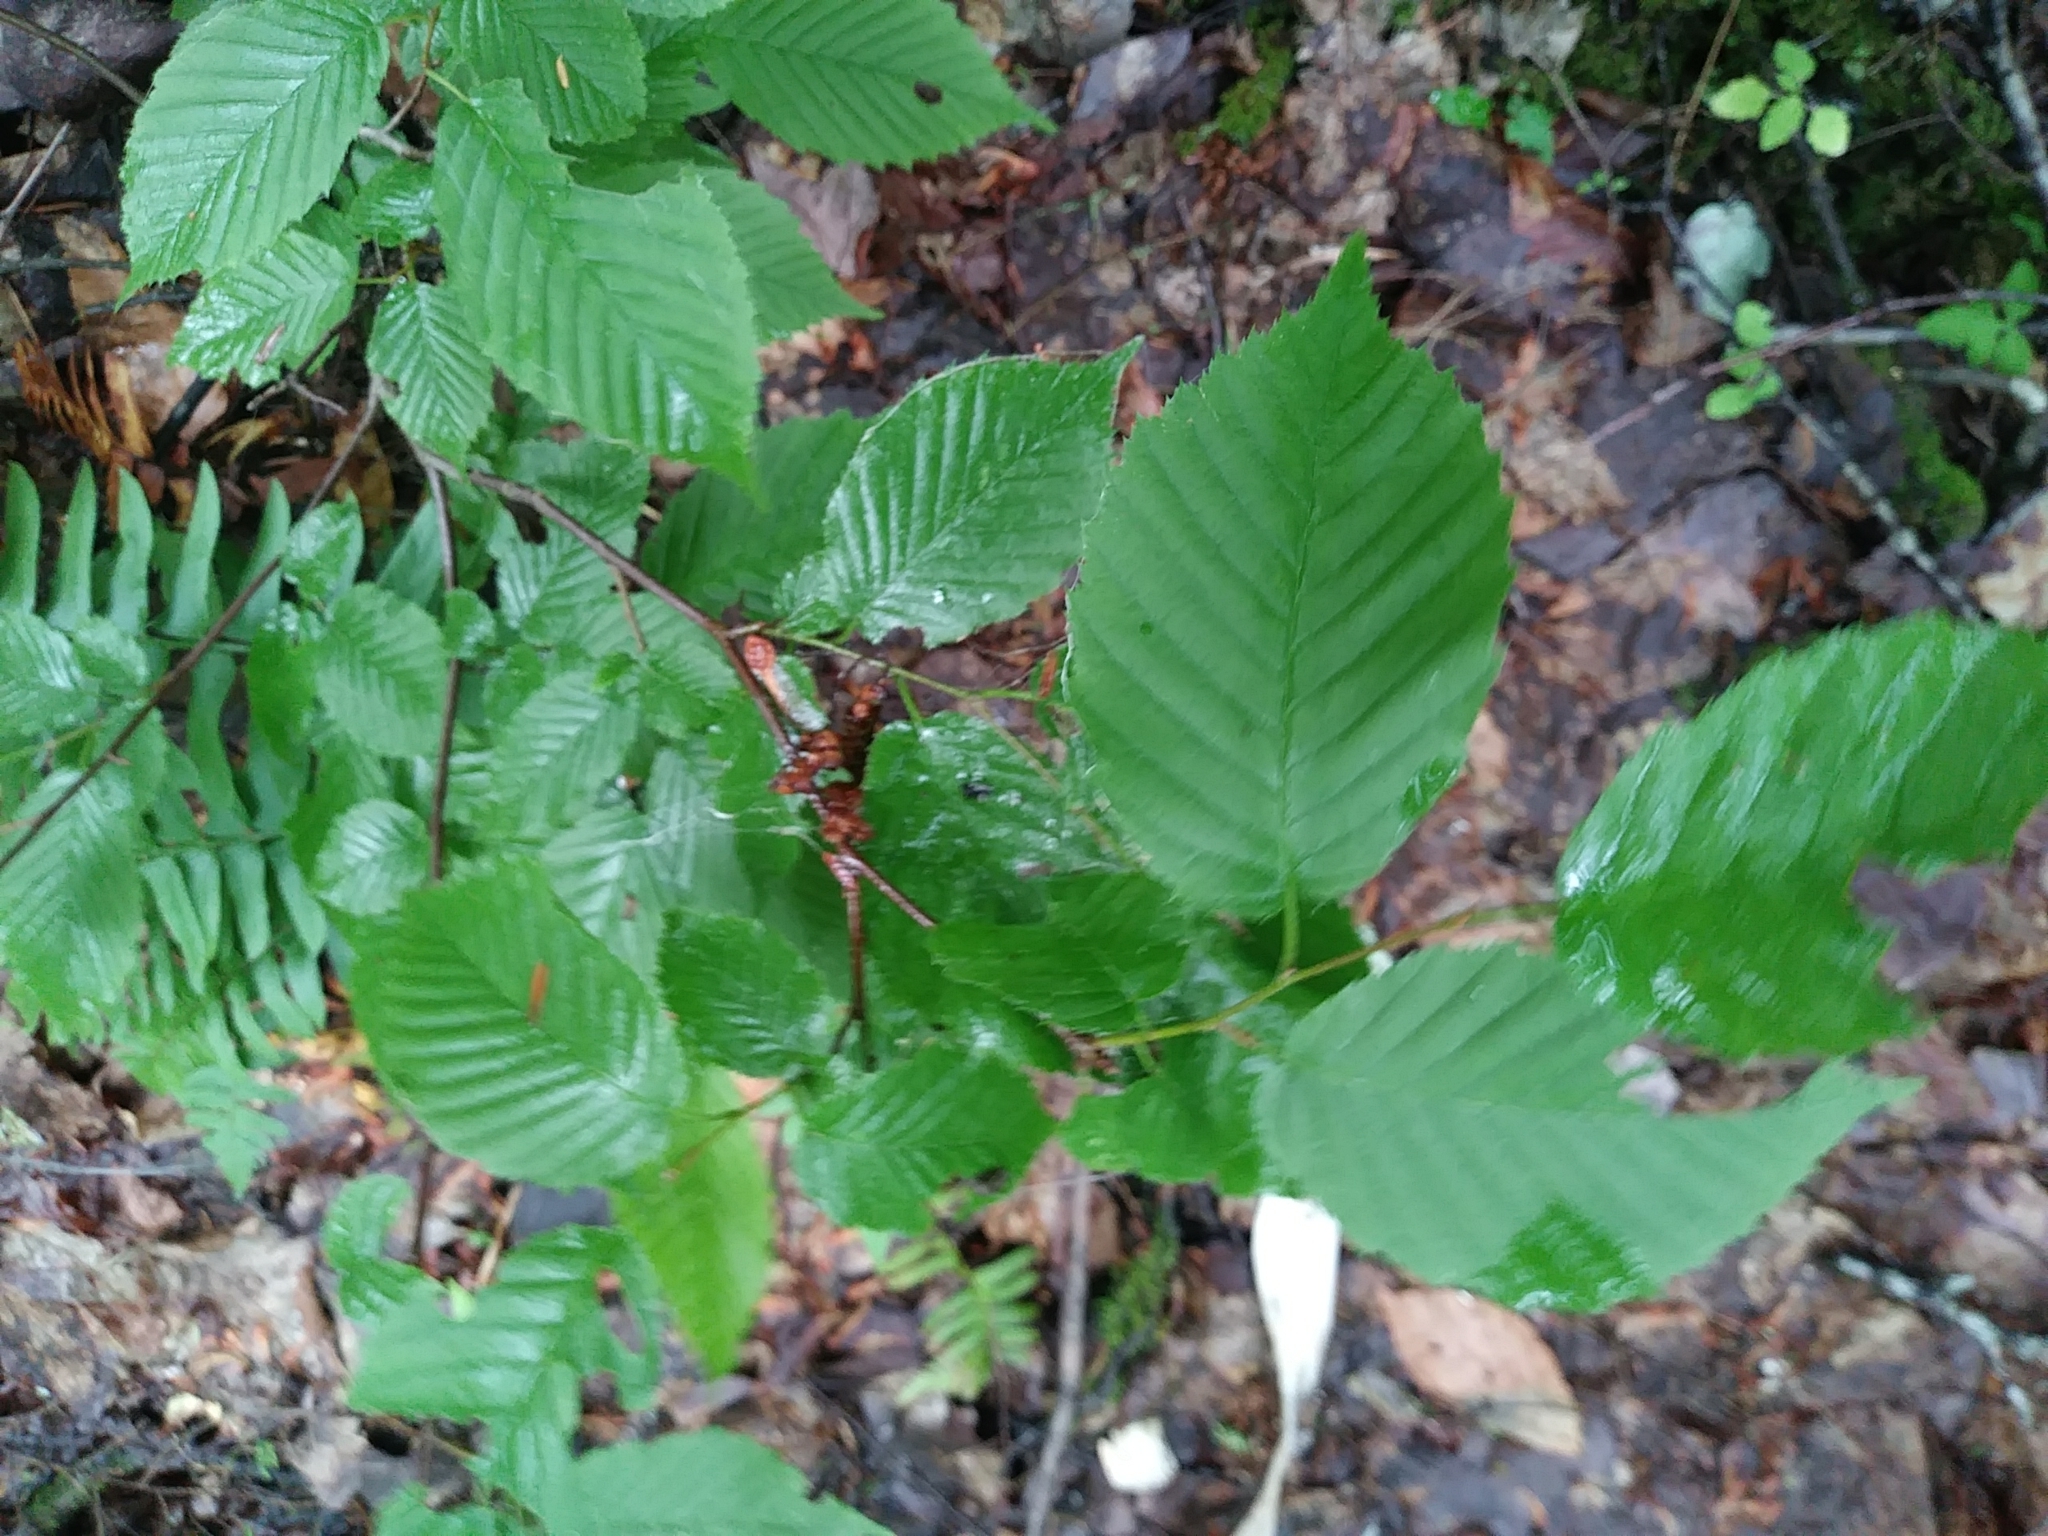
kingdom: Plantae
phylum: Tracheophyta
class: Magnoliopsida
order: Fagales
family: Betulaceae
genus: Carpinus
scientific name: Carpinus caroliniana
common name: American hornbeam
